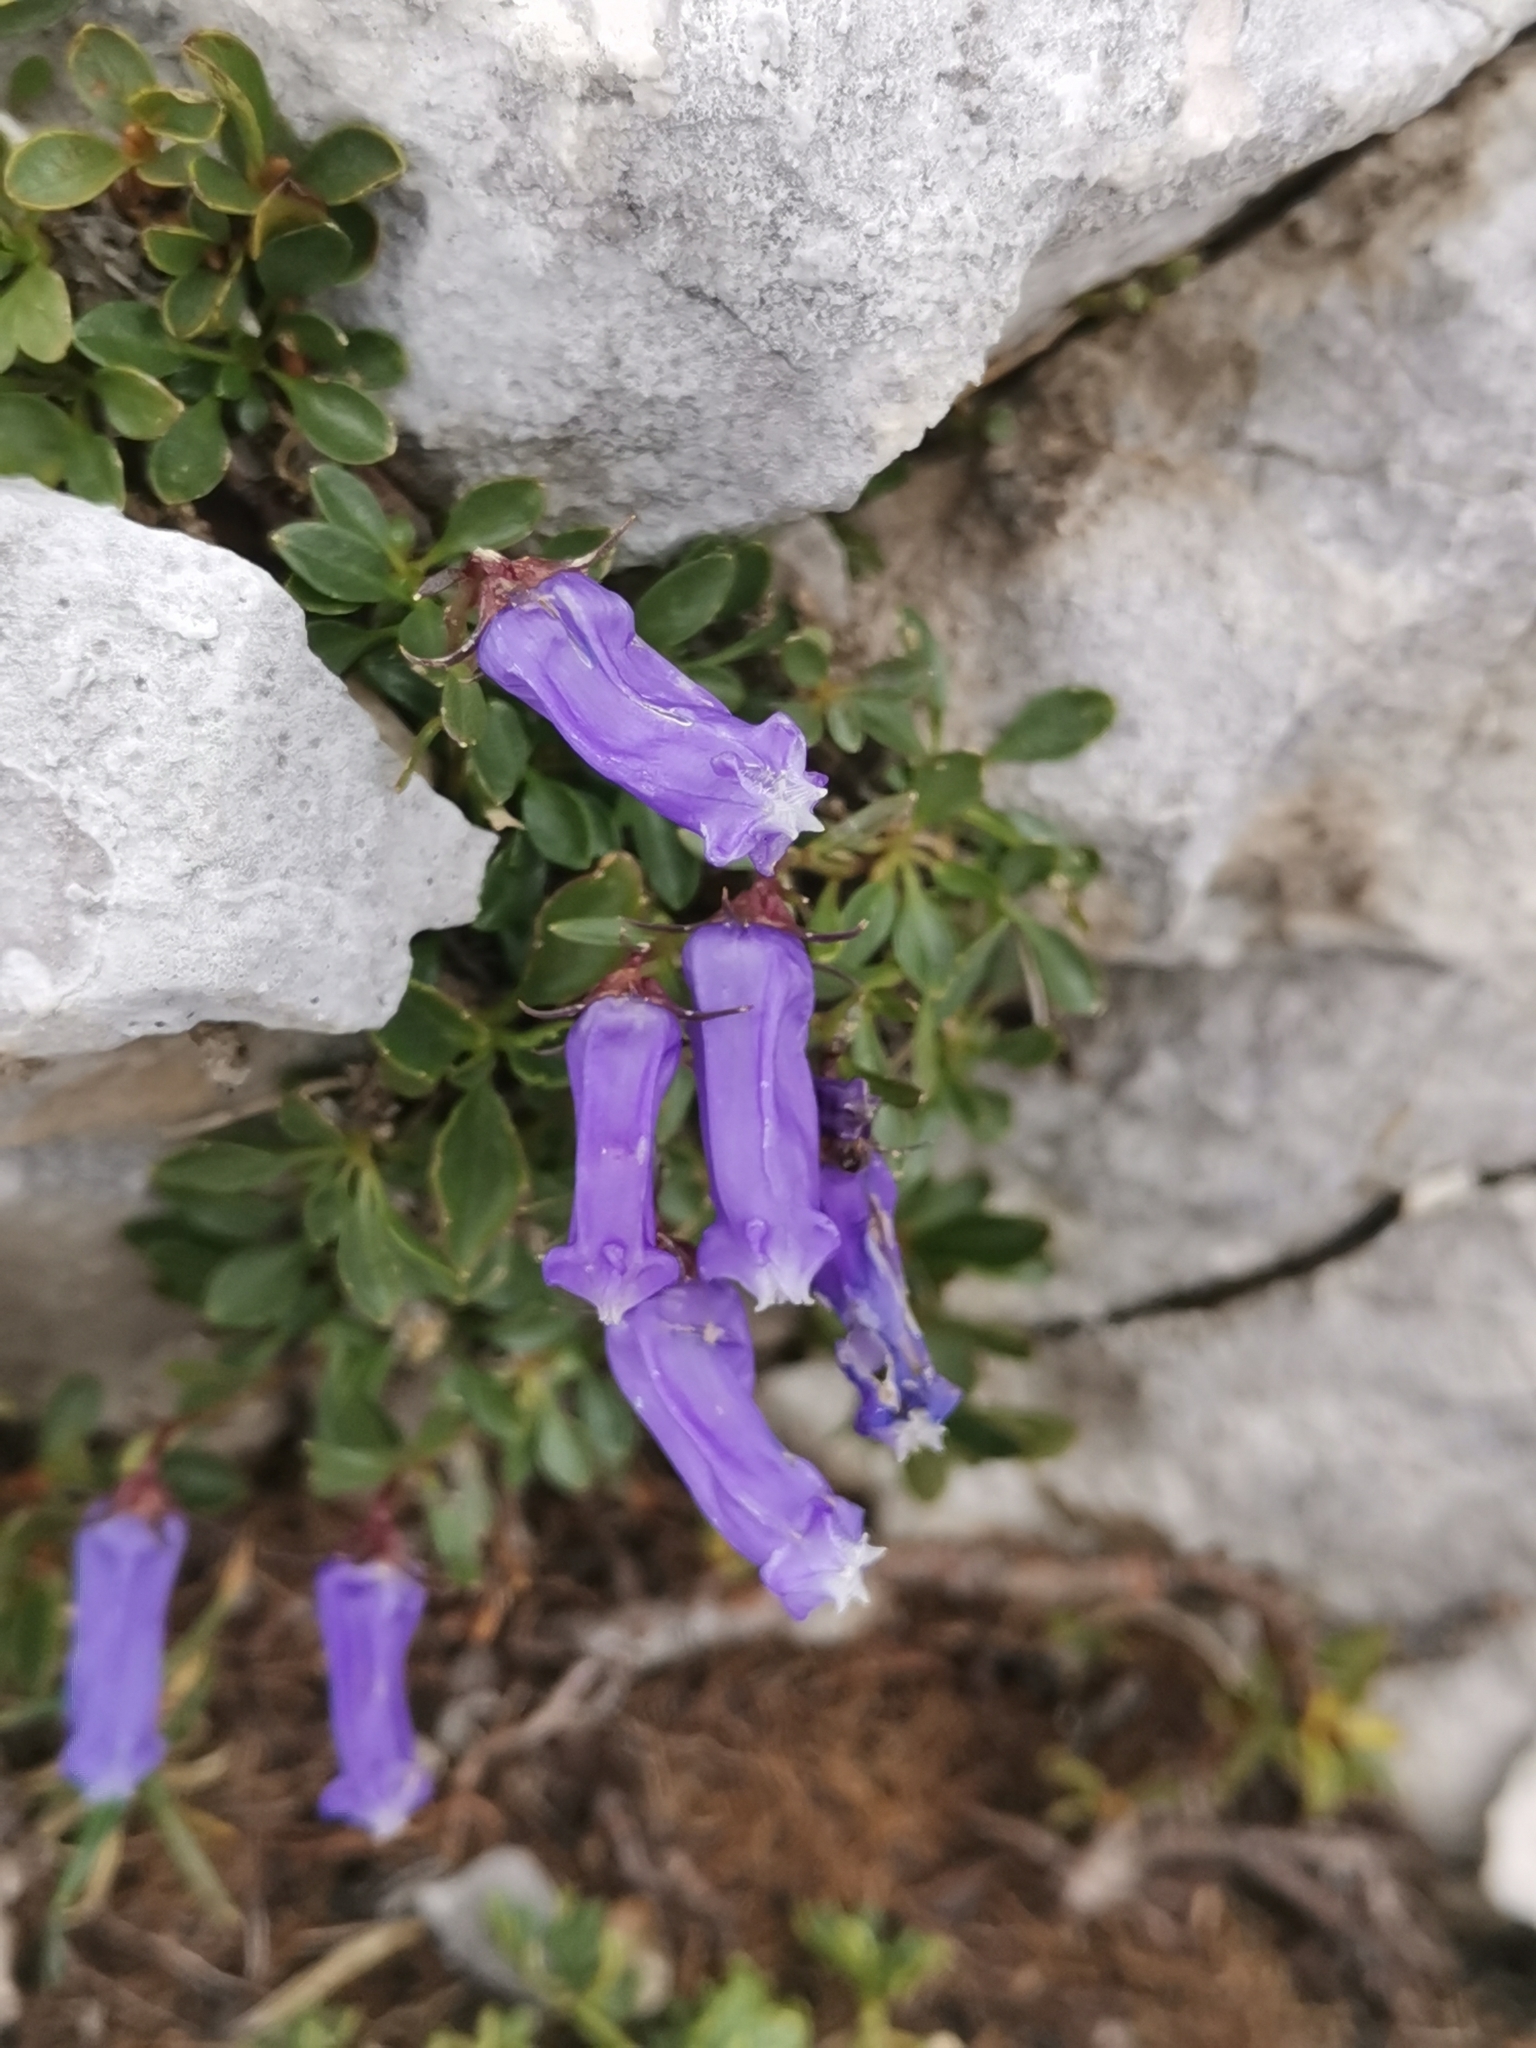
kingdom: Plantae
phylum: Tracheophyta
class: Magnoliopsida
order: Asterales
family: Campanulaceae
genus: Favratia
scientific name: Favratia zoysii
